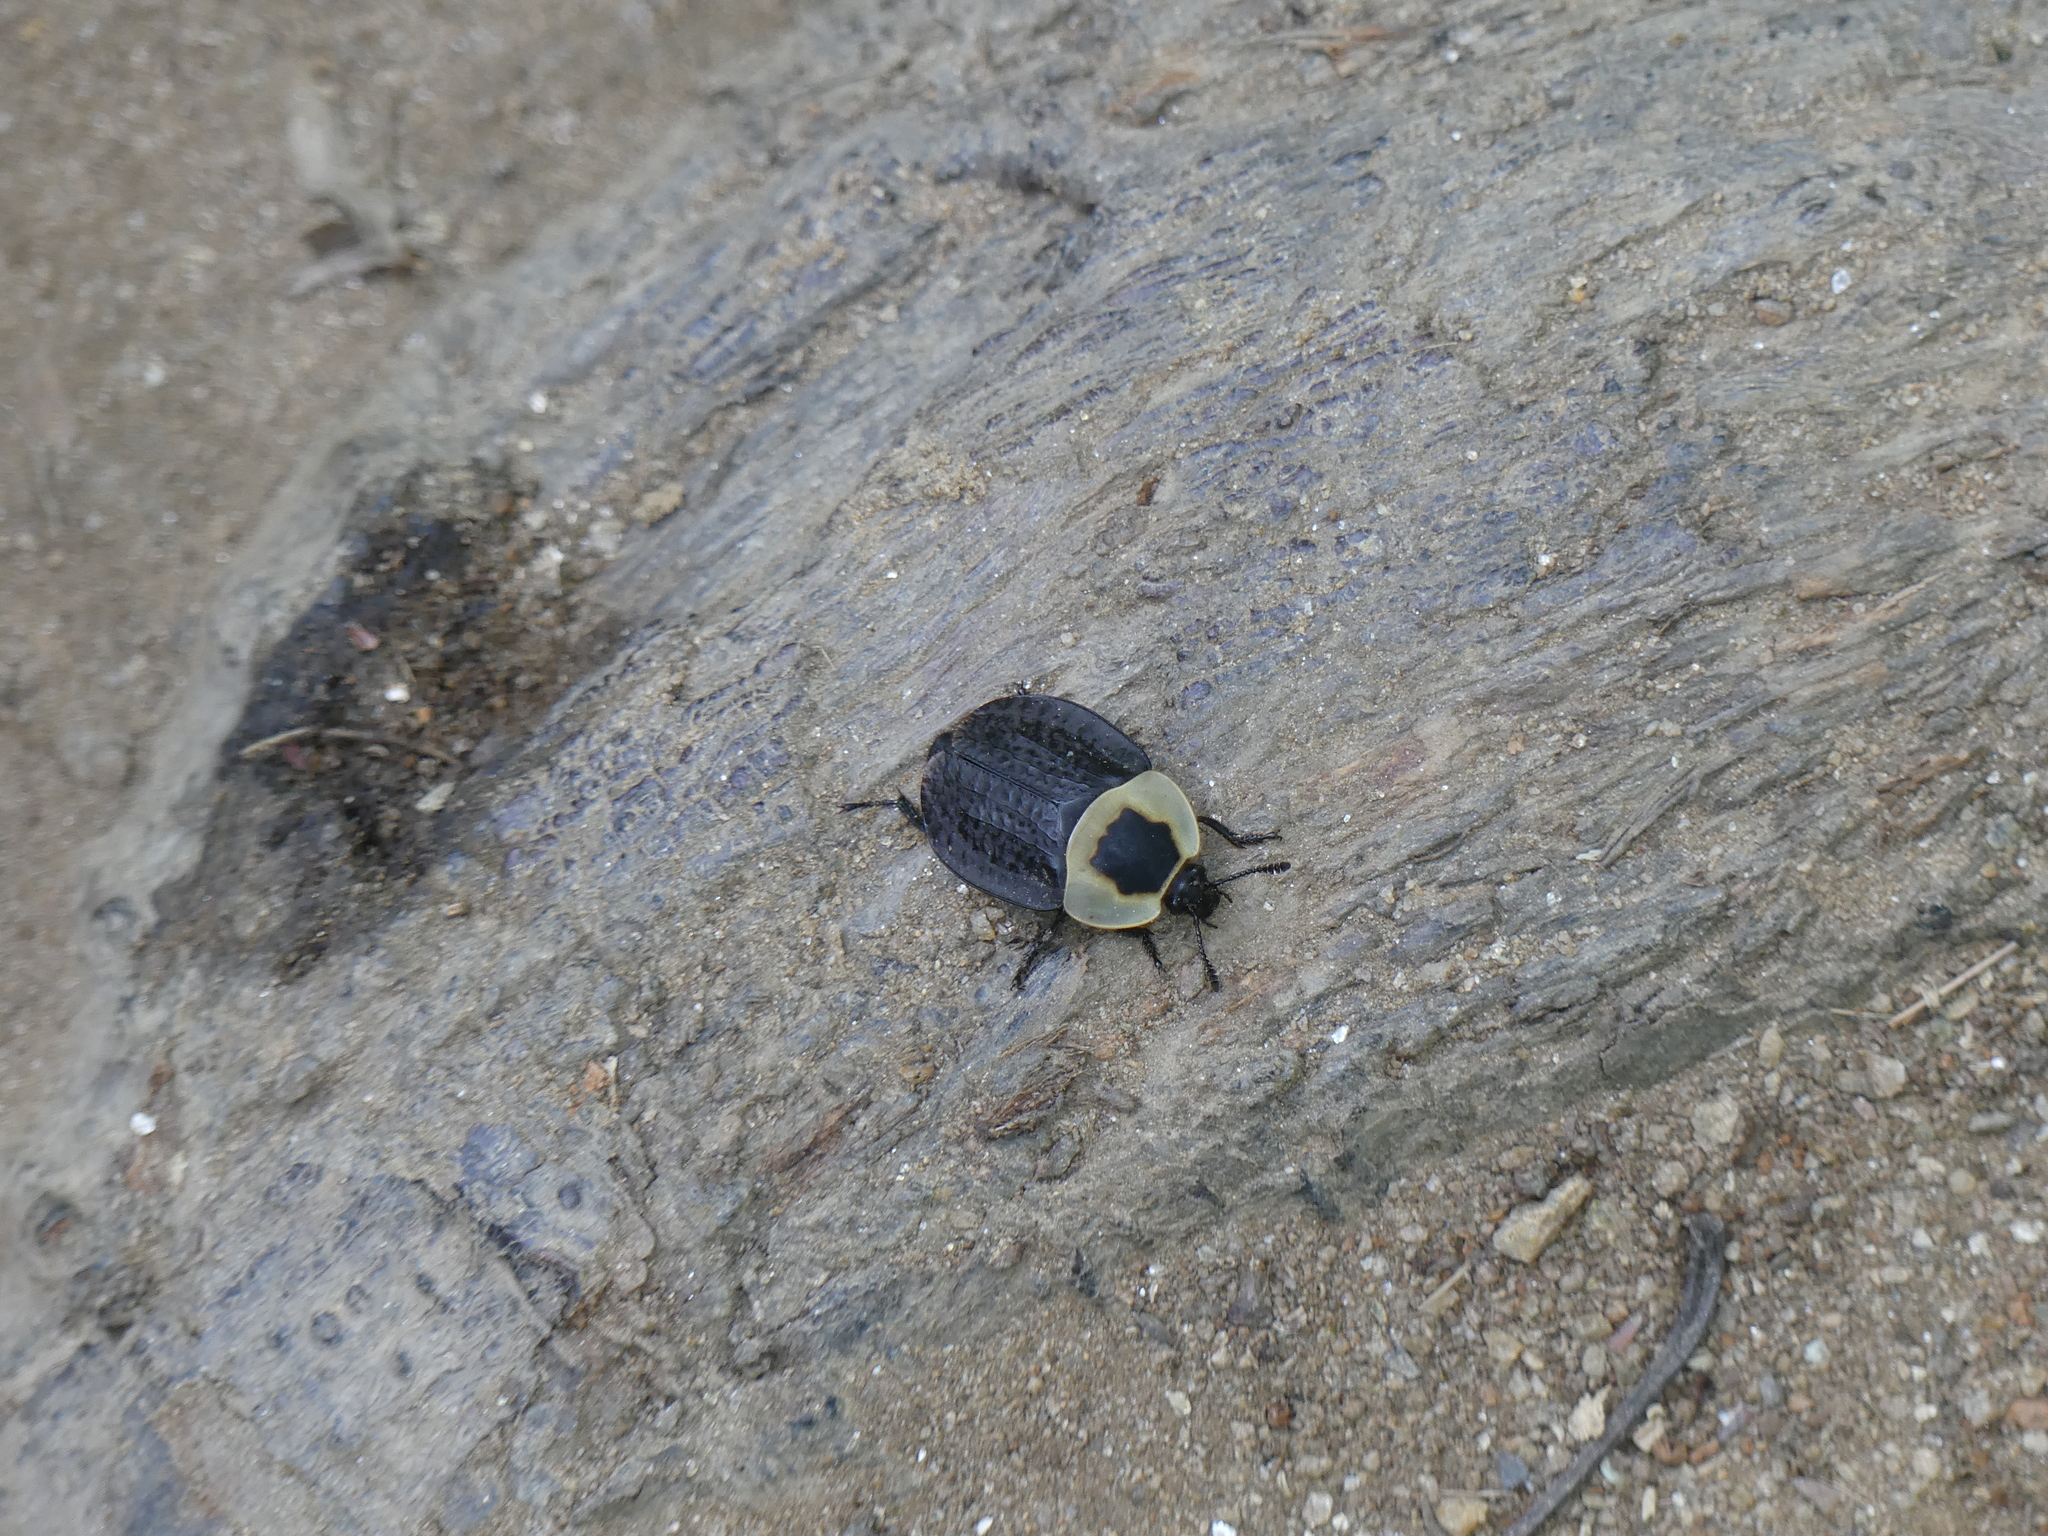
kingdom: Animalia
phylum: Arthropoda
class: Insecta
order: Coleoptera
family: Staphylinidae
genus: Necrophila
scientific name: Necrophila americana
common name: American carrion beetle
